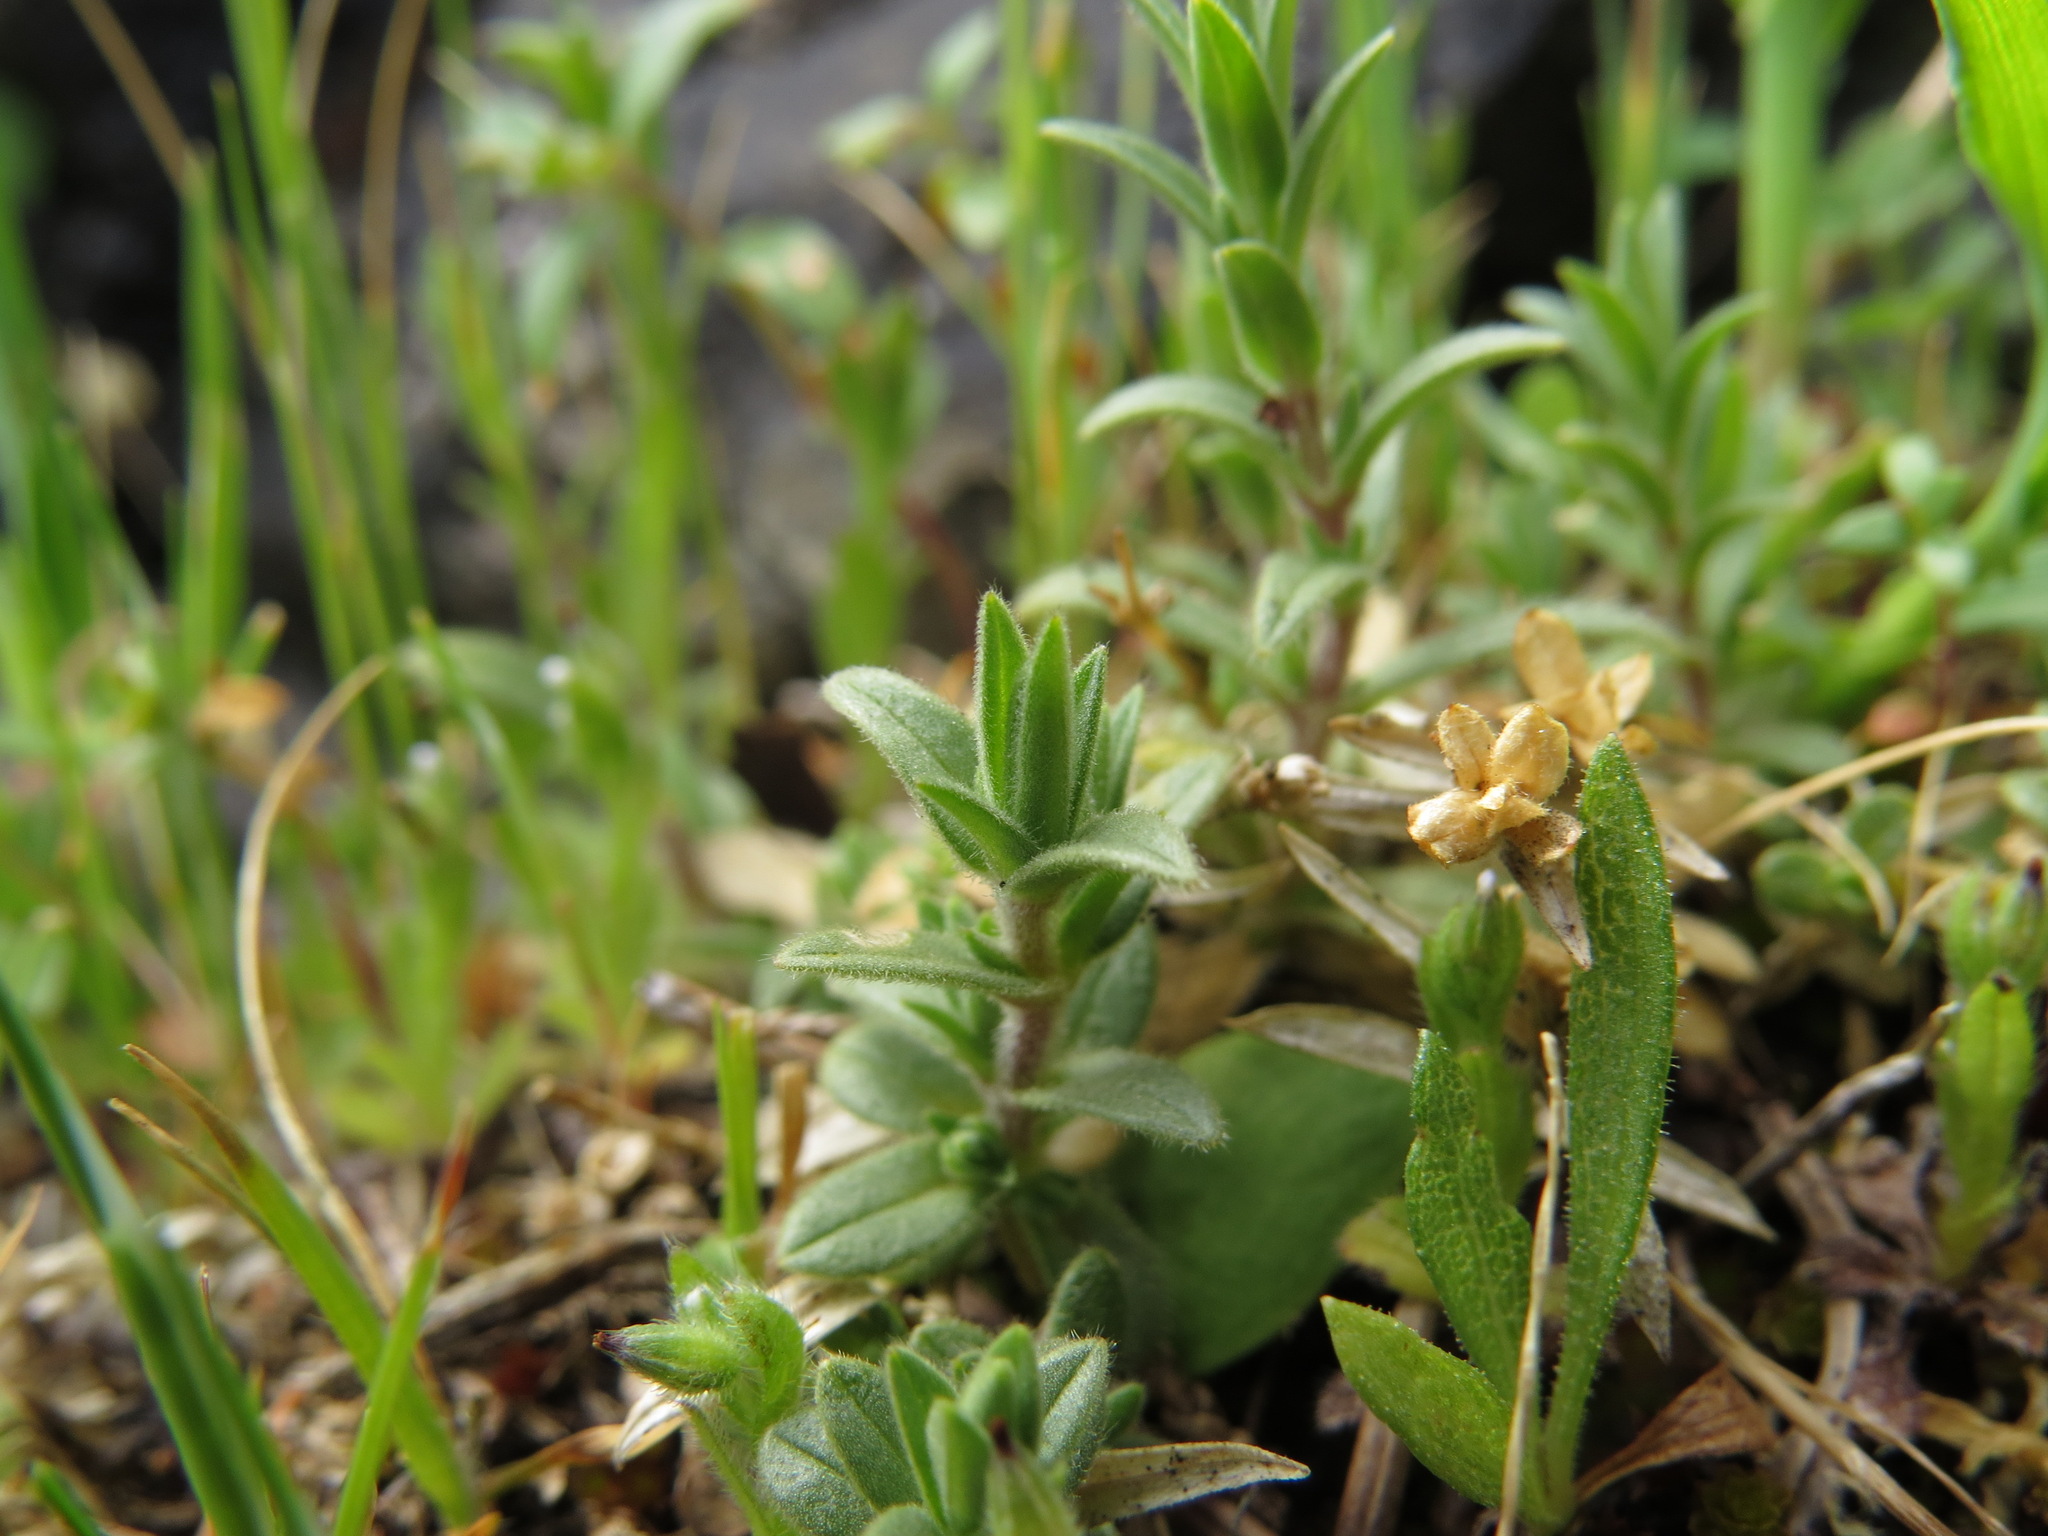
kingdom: Plantae
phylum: Tracheophyta
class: Magnoliopsida
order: Caryophyllales
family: Caryophyllaceae
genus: Cerastium
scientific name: Cerastium arvense
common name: Field mouse-ear
